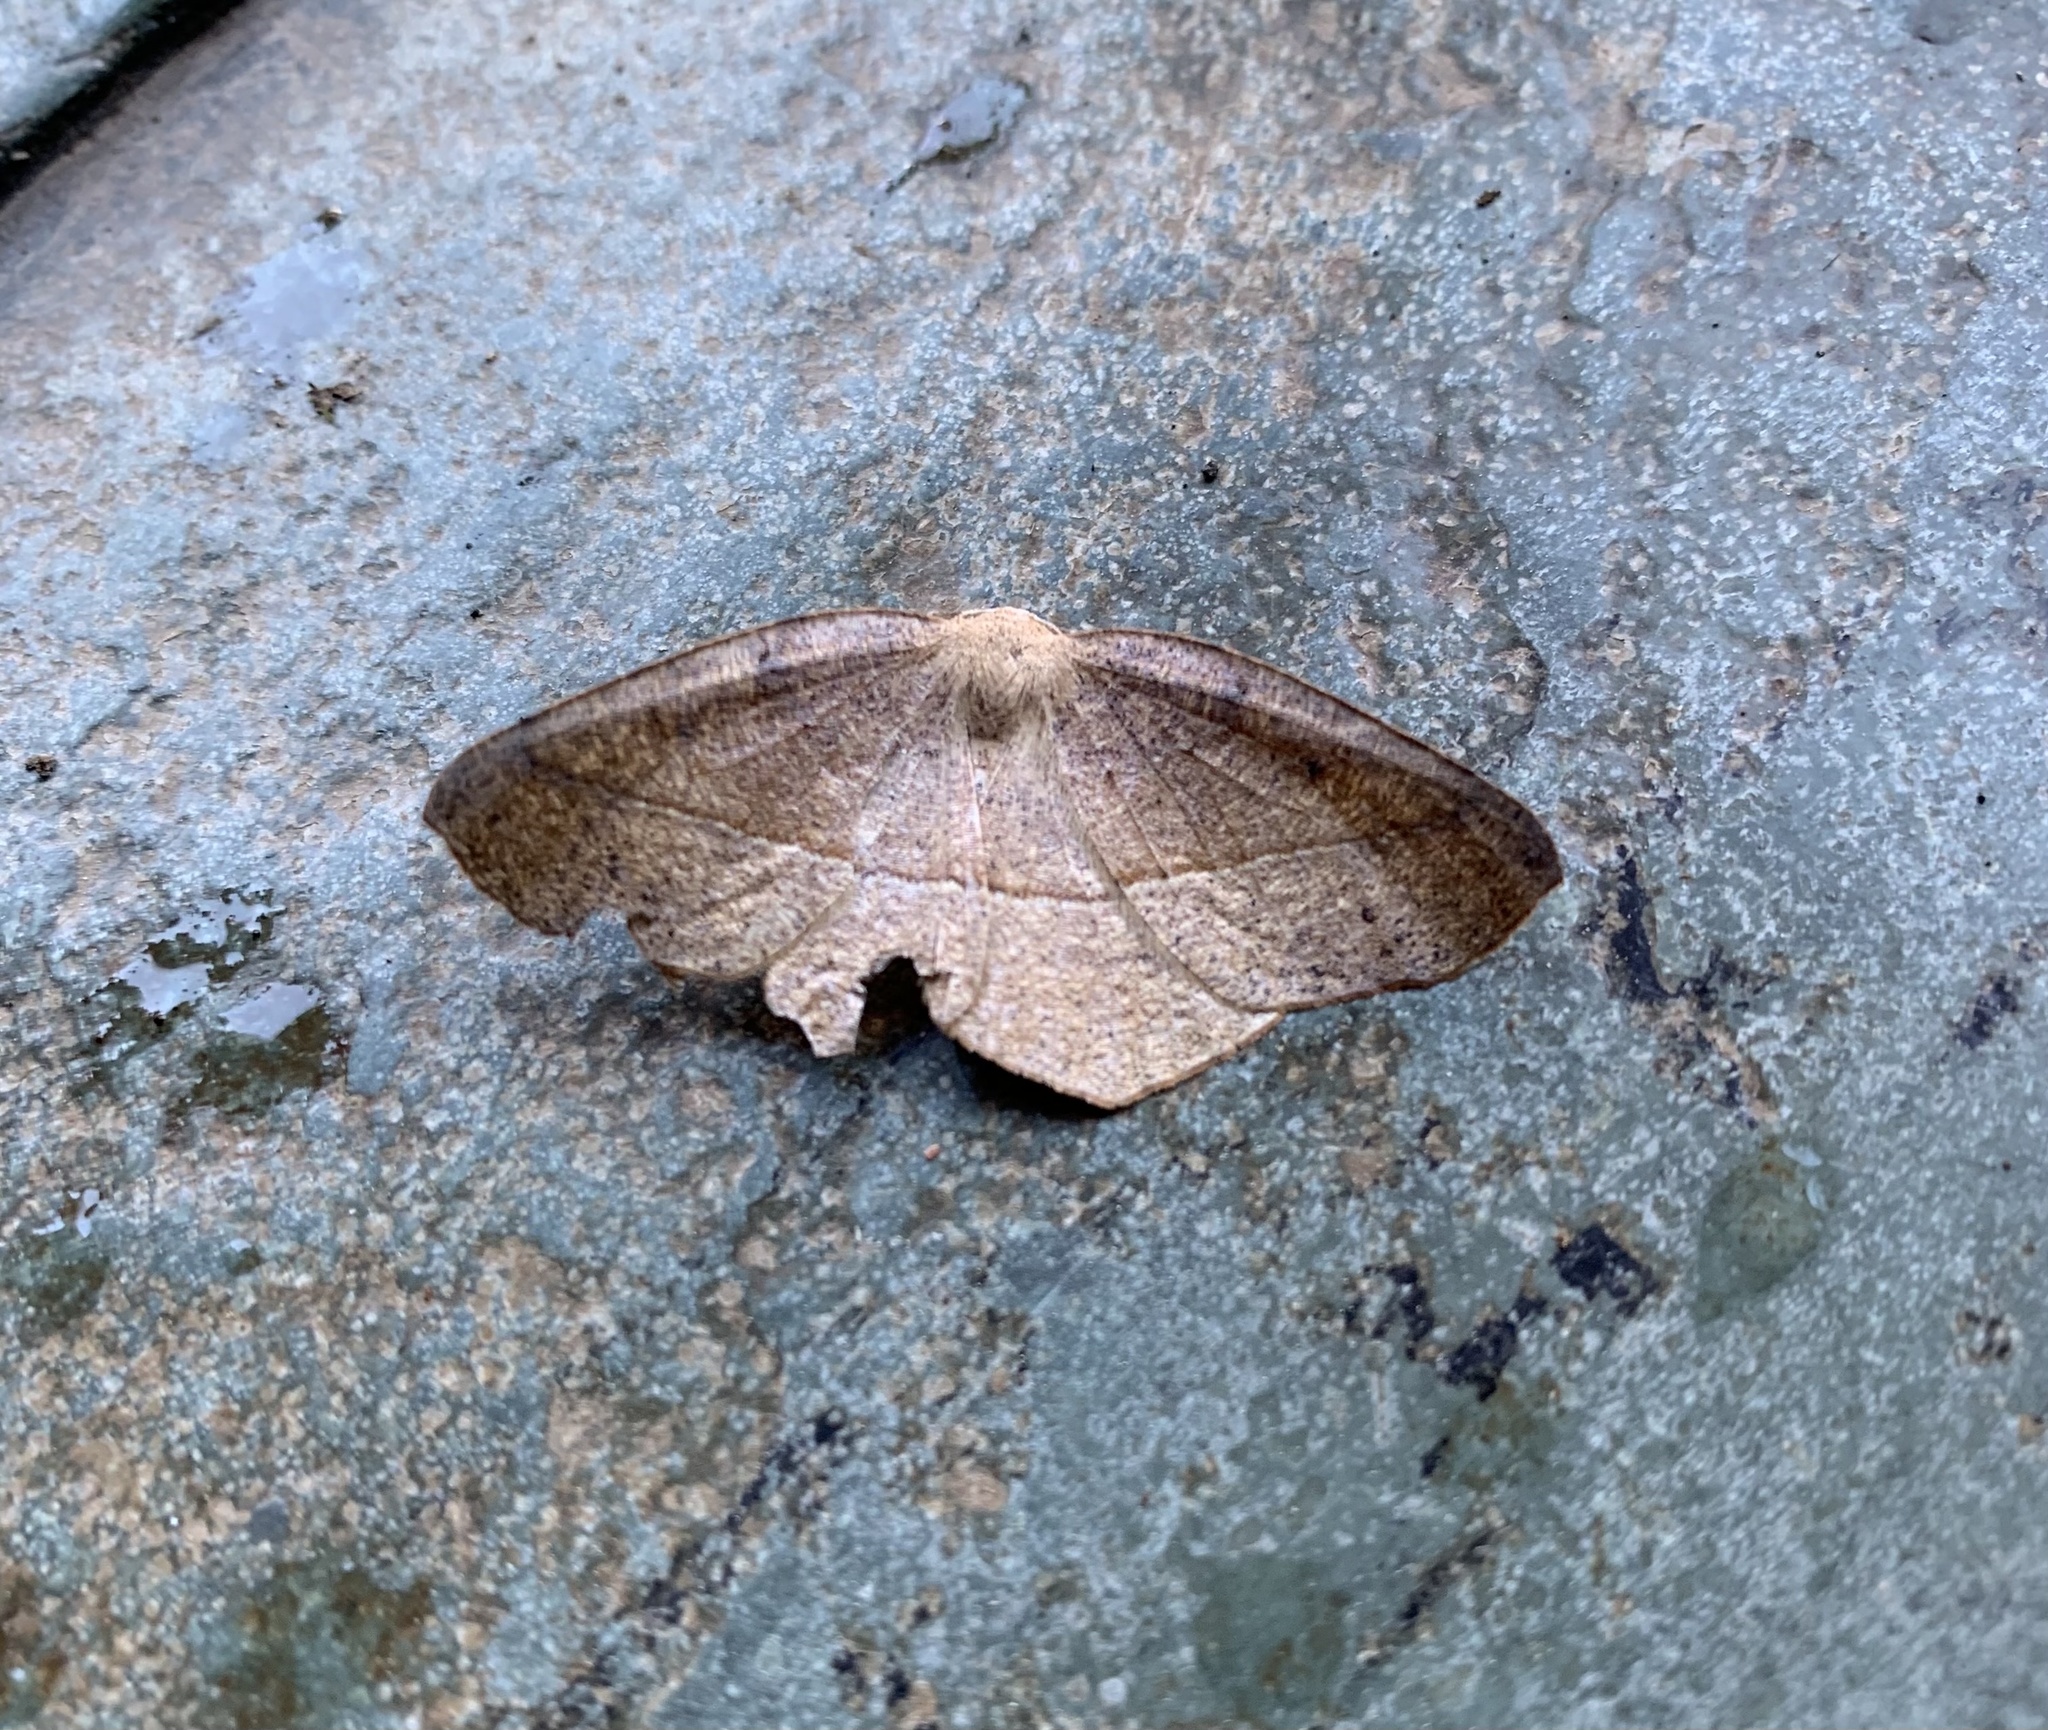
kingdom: Animalia
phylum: Arthropoda
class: Insecta
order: Lepidoptera
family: Geometridae
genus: Syncirsodes
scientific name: Syncirsodes primata
